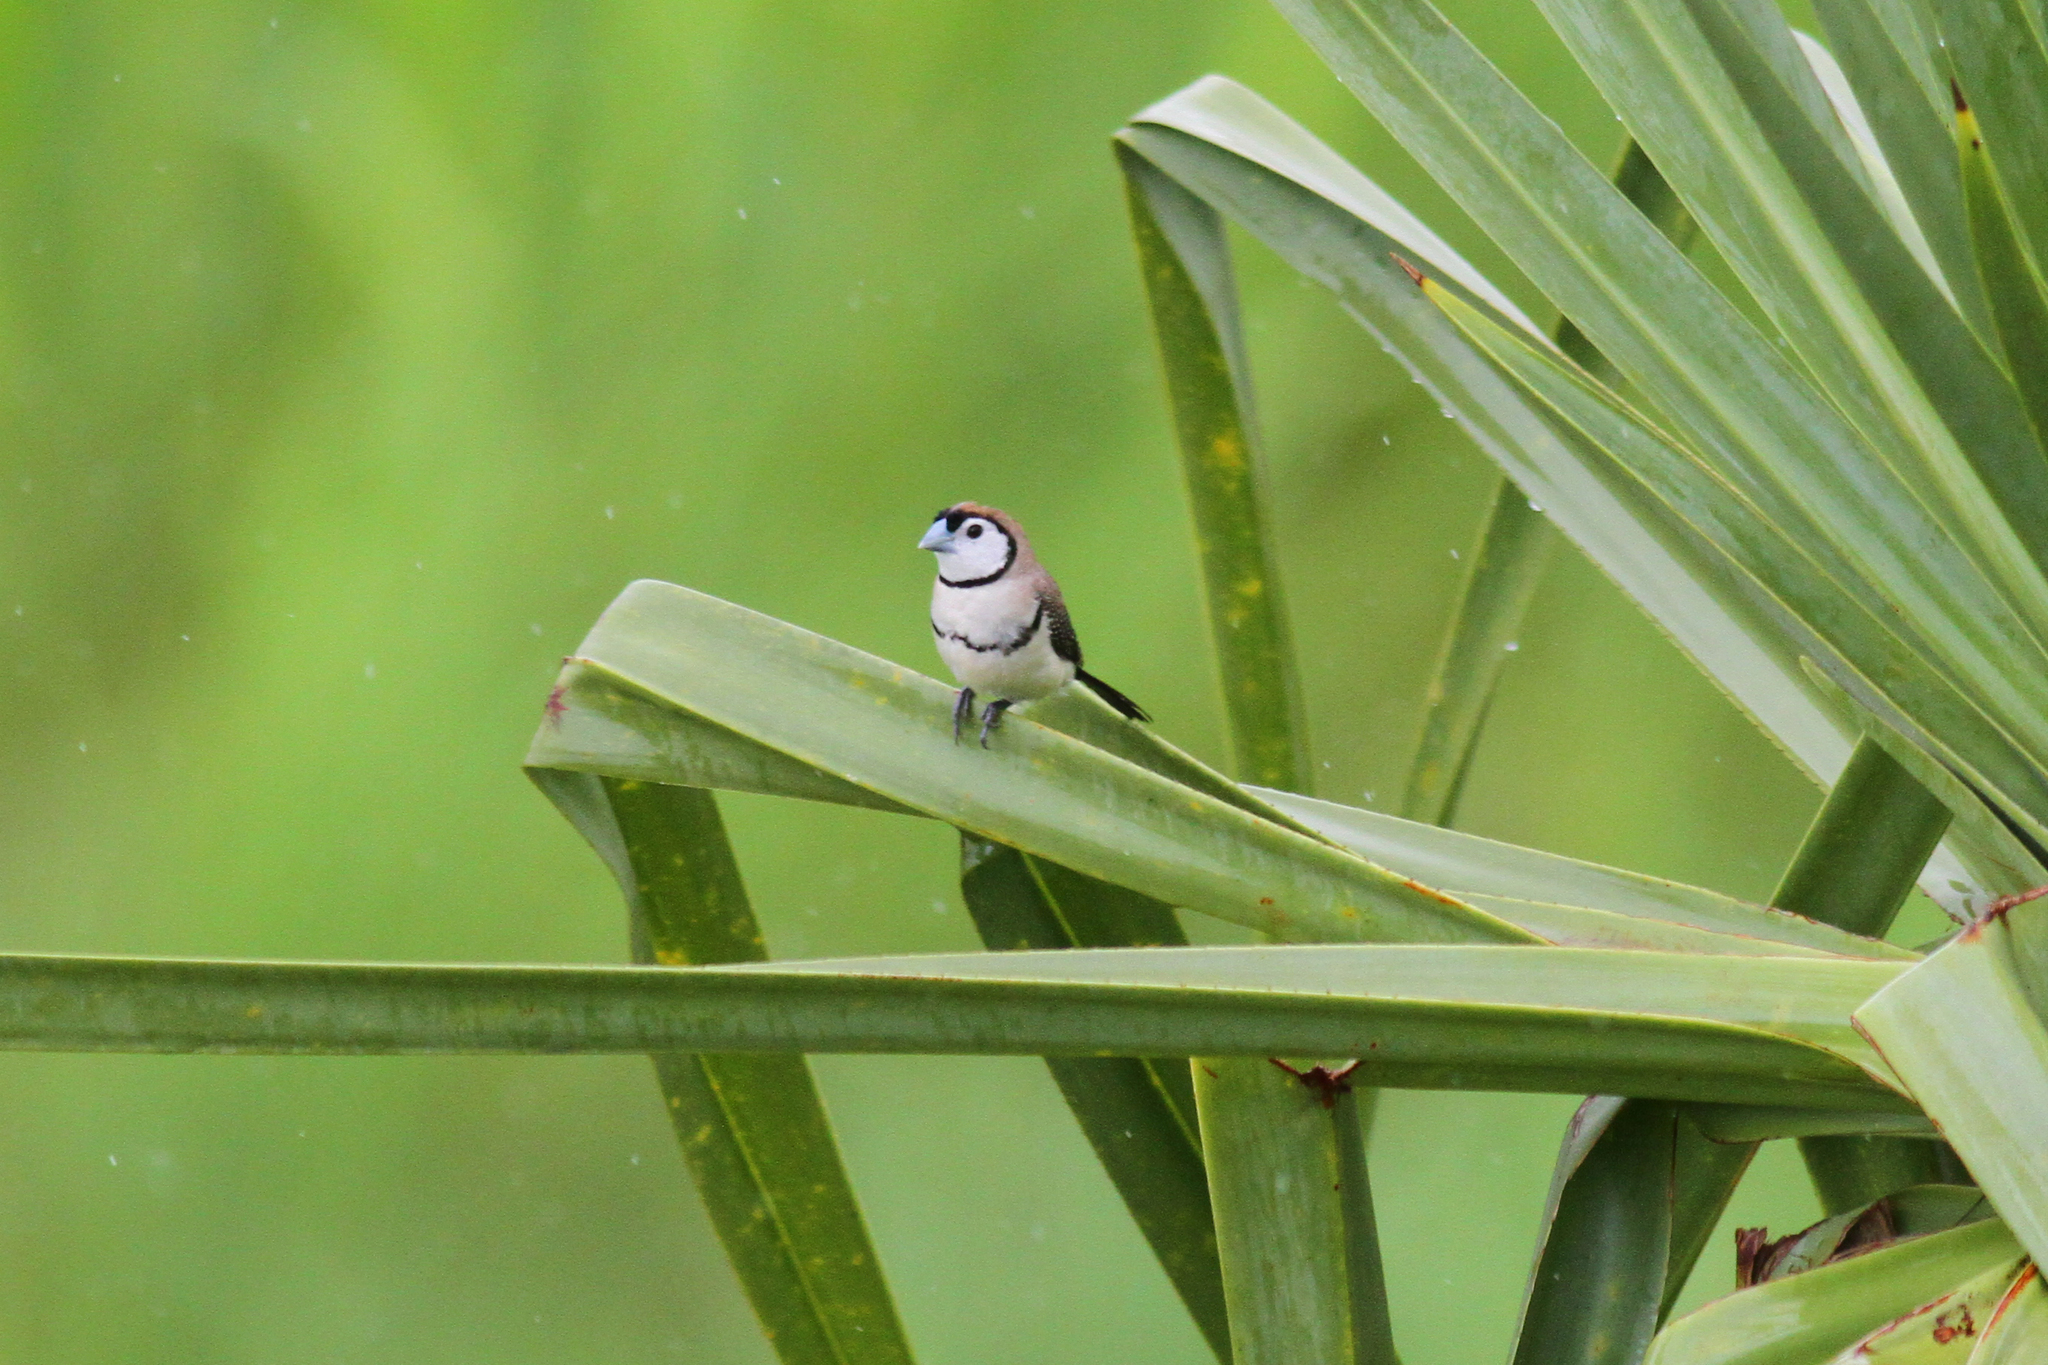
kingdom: Animalia
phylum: Chordata
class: Aves
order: Passeriformes
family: Estrildidae
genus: Taeniopygia
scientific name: Taeniopygia bichenovii
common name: Double-barred finch
